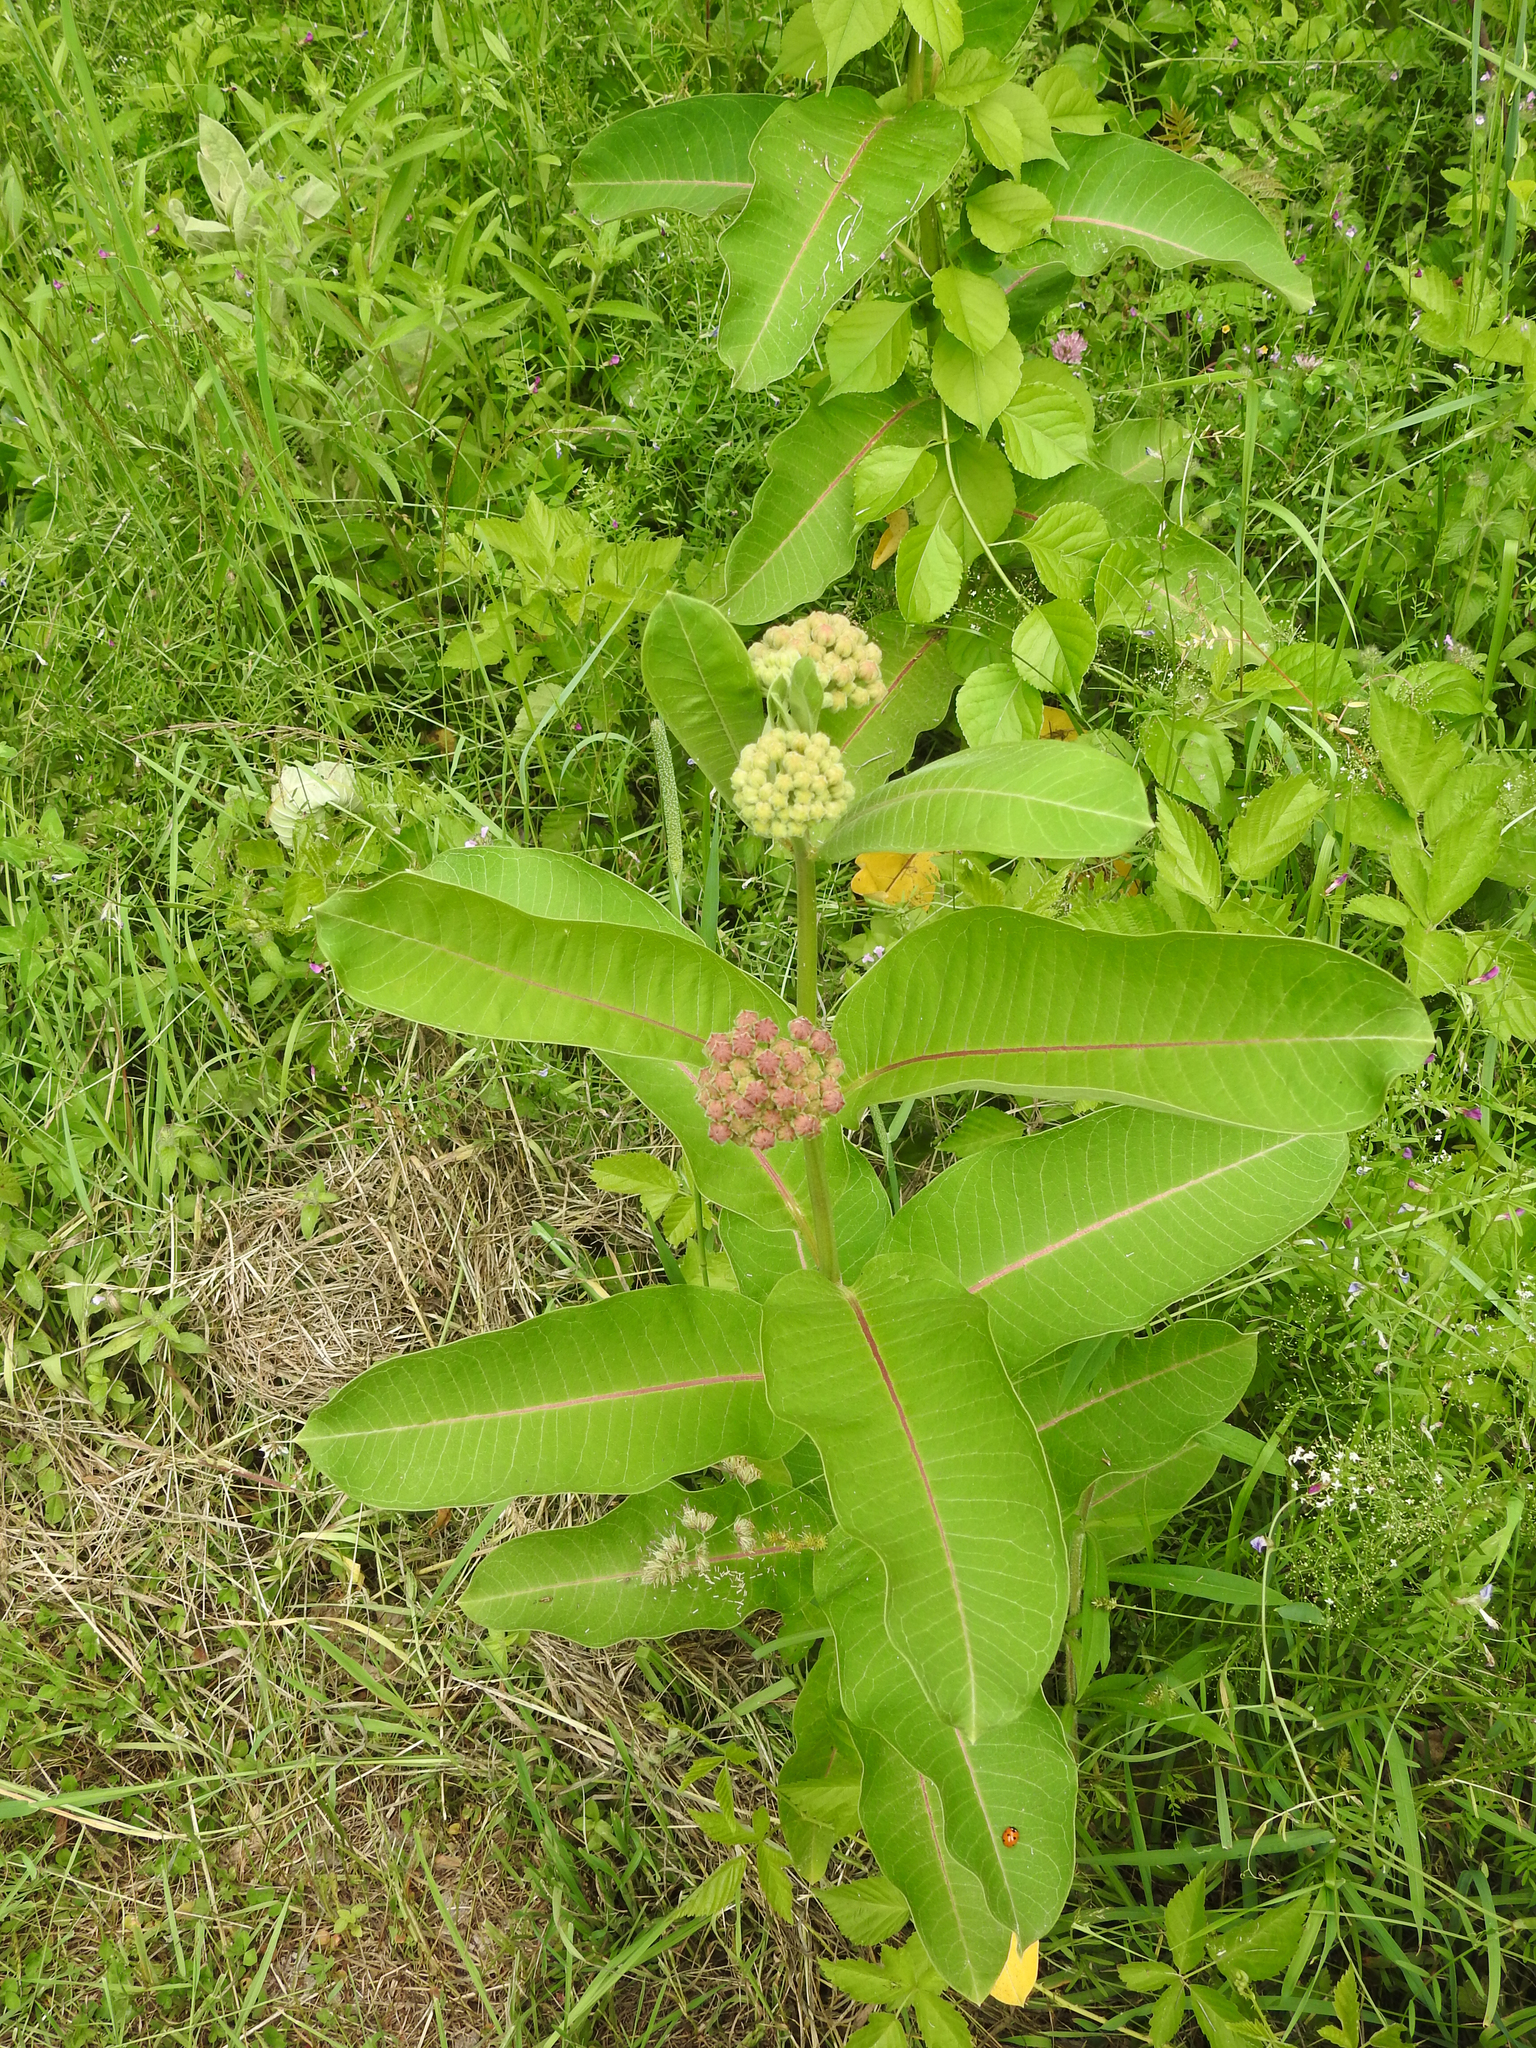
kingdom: Plantae
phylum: Tracheophyta
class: Magnoliopsida
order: Gentianales
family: Apocynaceae
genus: Asclepias
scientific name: Asclepias syriaca
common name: Common milkweed
